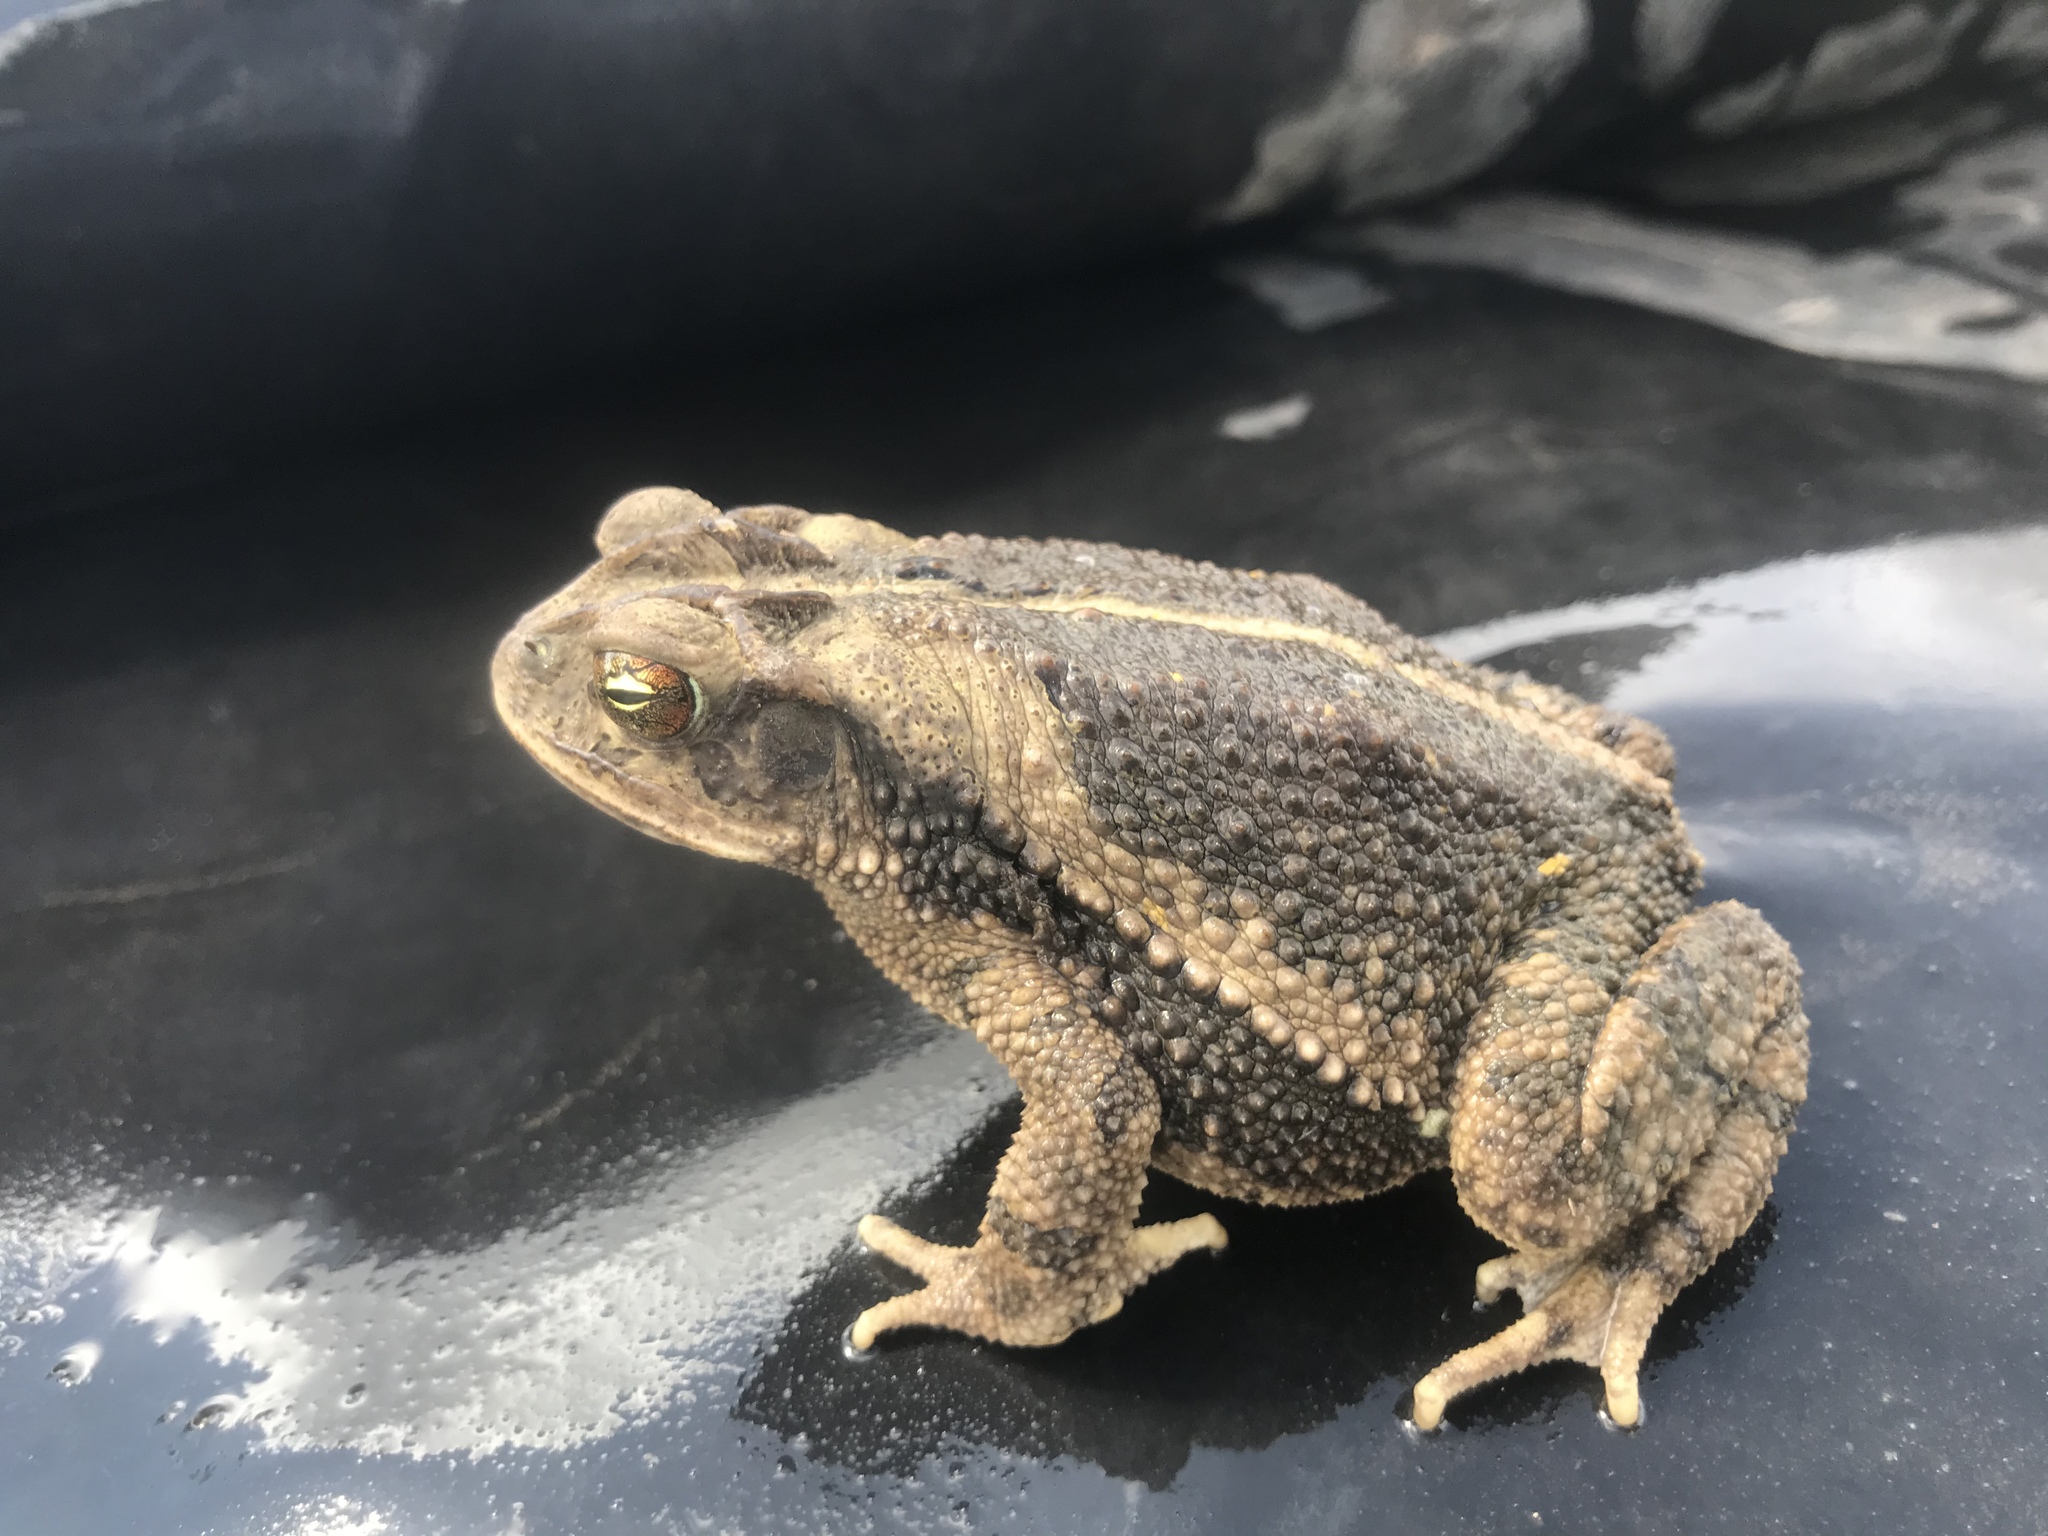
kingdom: Animalia
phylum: Chordata
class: Amphibia
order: Anura
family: Bufonidae
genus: Incilius
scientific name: Incilius nebulifer
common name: Gulf coast toad
